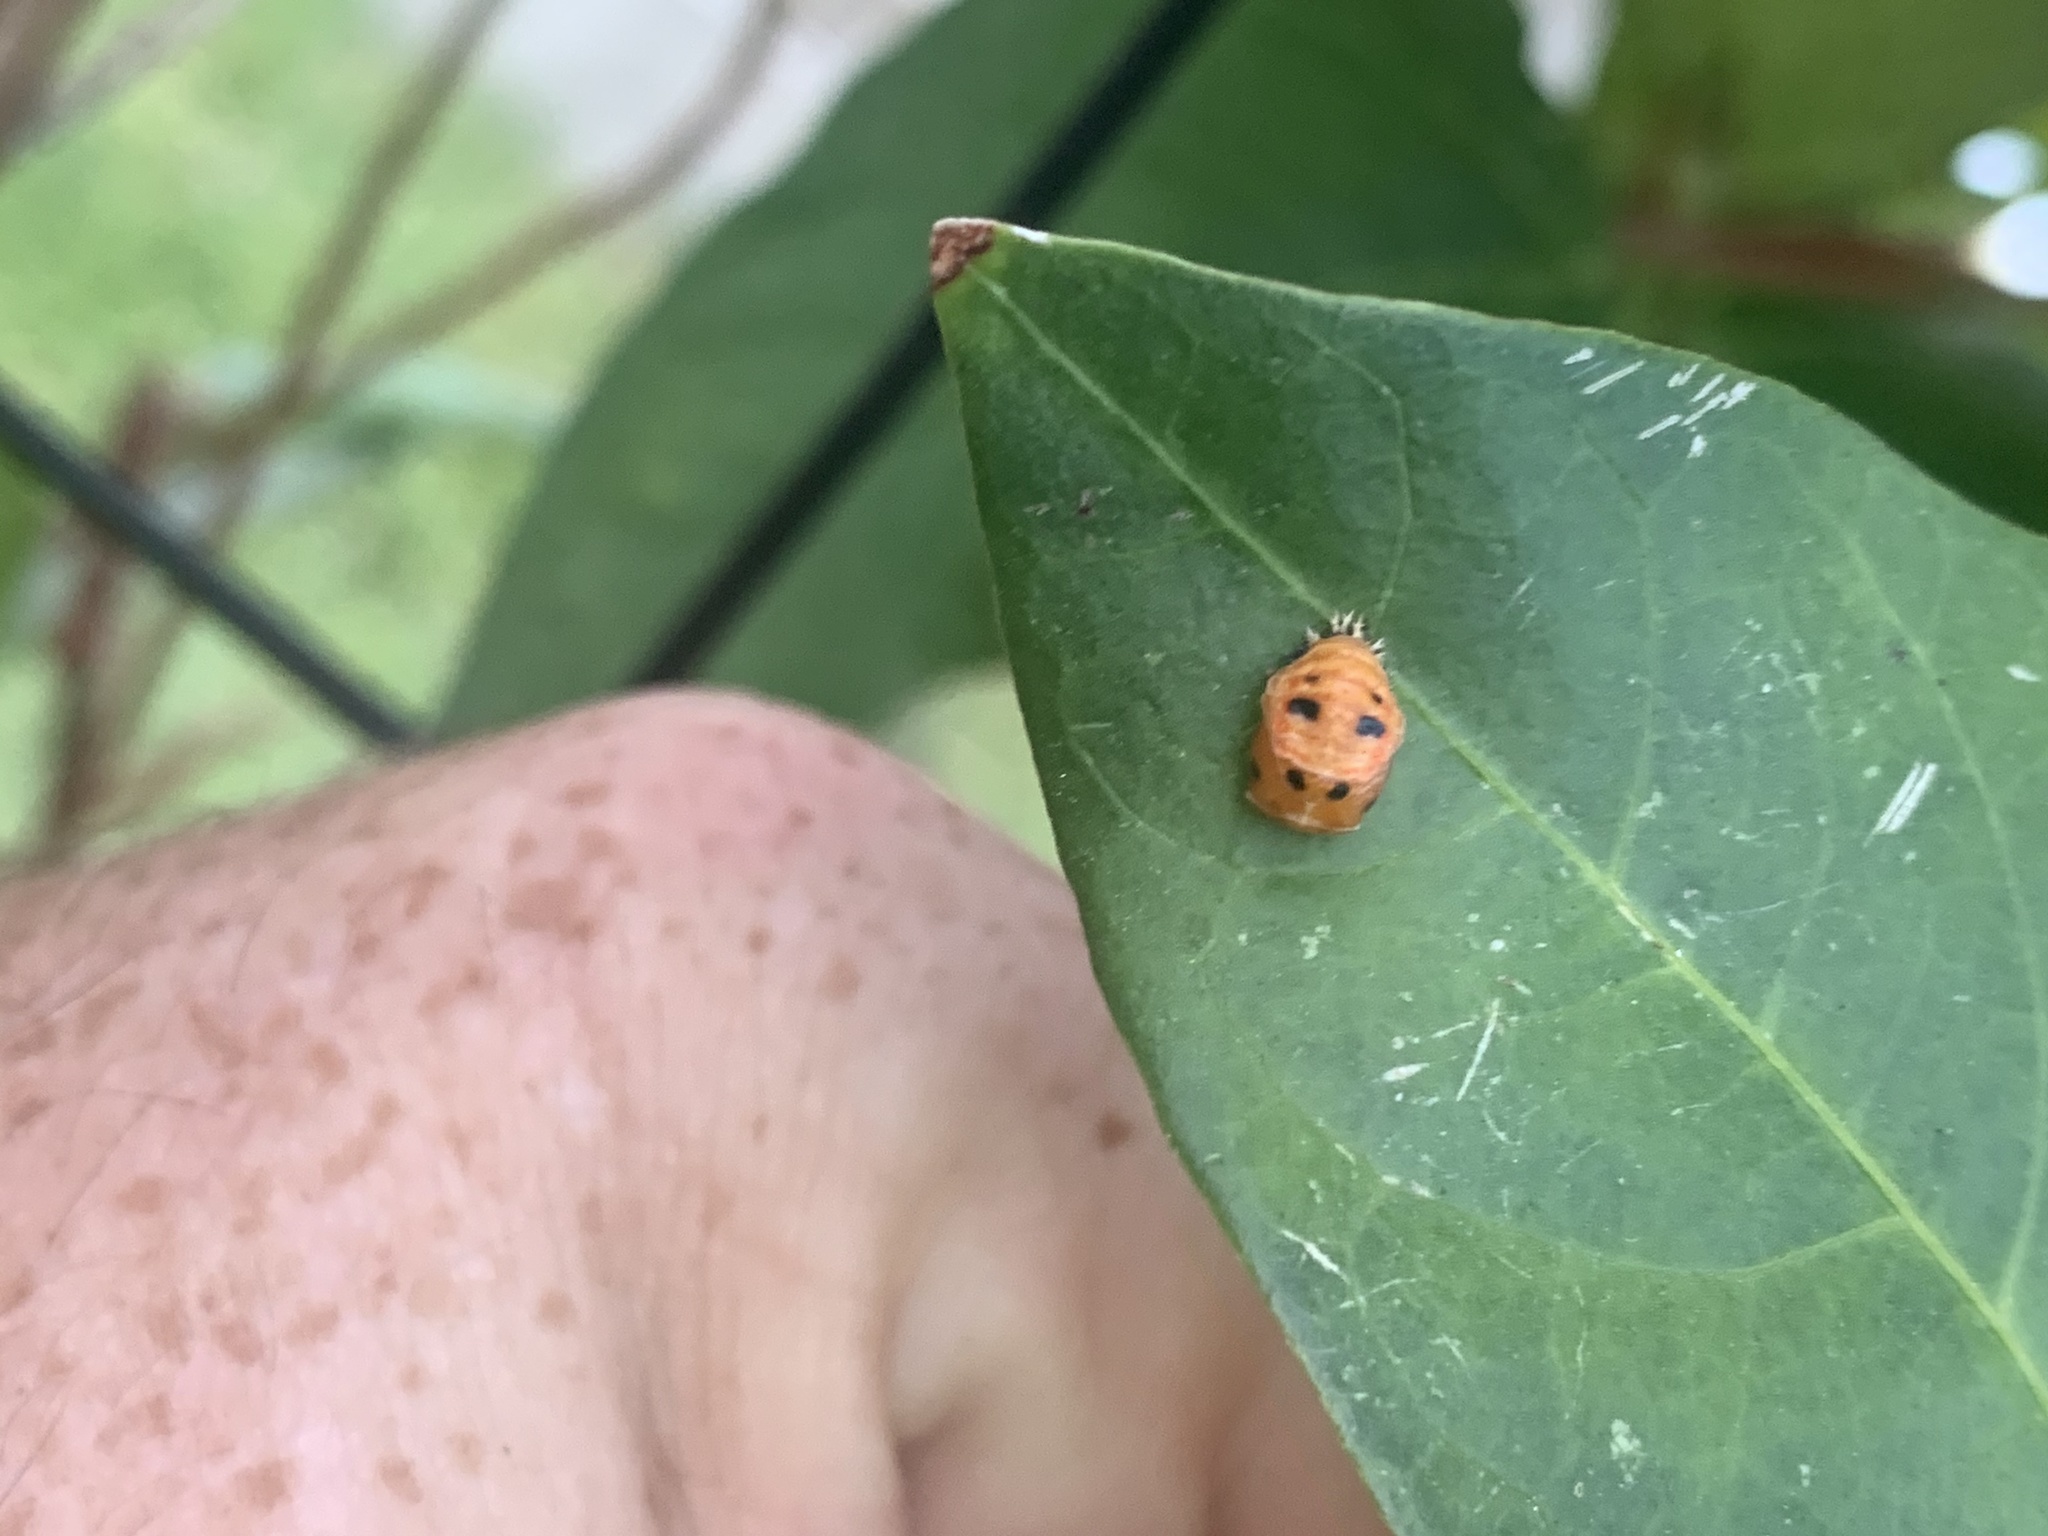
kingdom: Animalia
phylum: Arthropoda
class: Insecta
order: Coleoptera
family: Coccinellidae
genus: Harmonia
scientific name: Harmonia axyridis
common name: Harlequin ladybird
